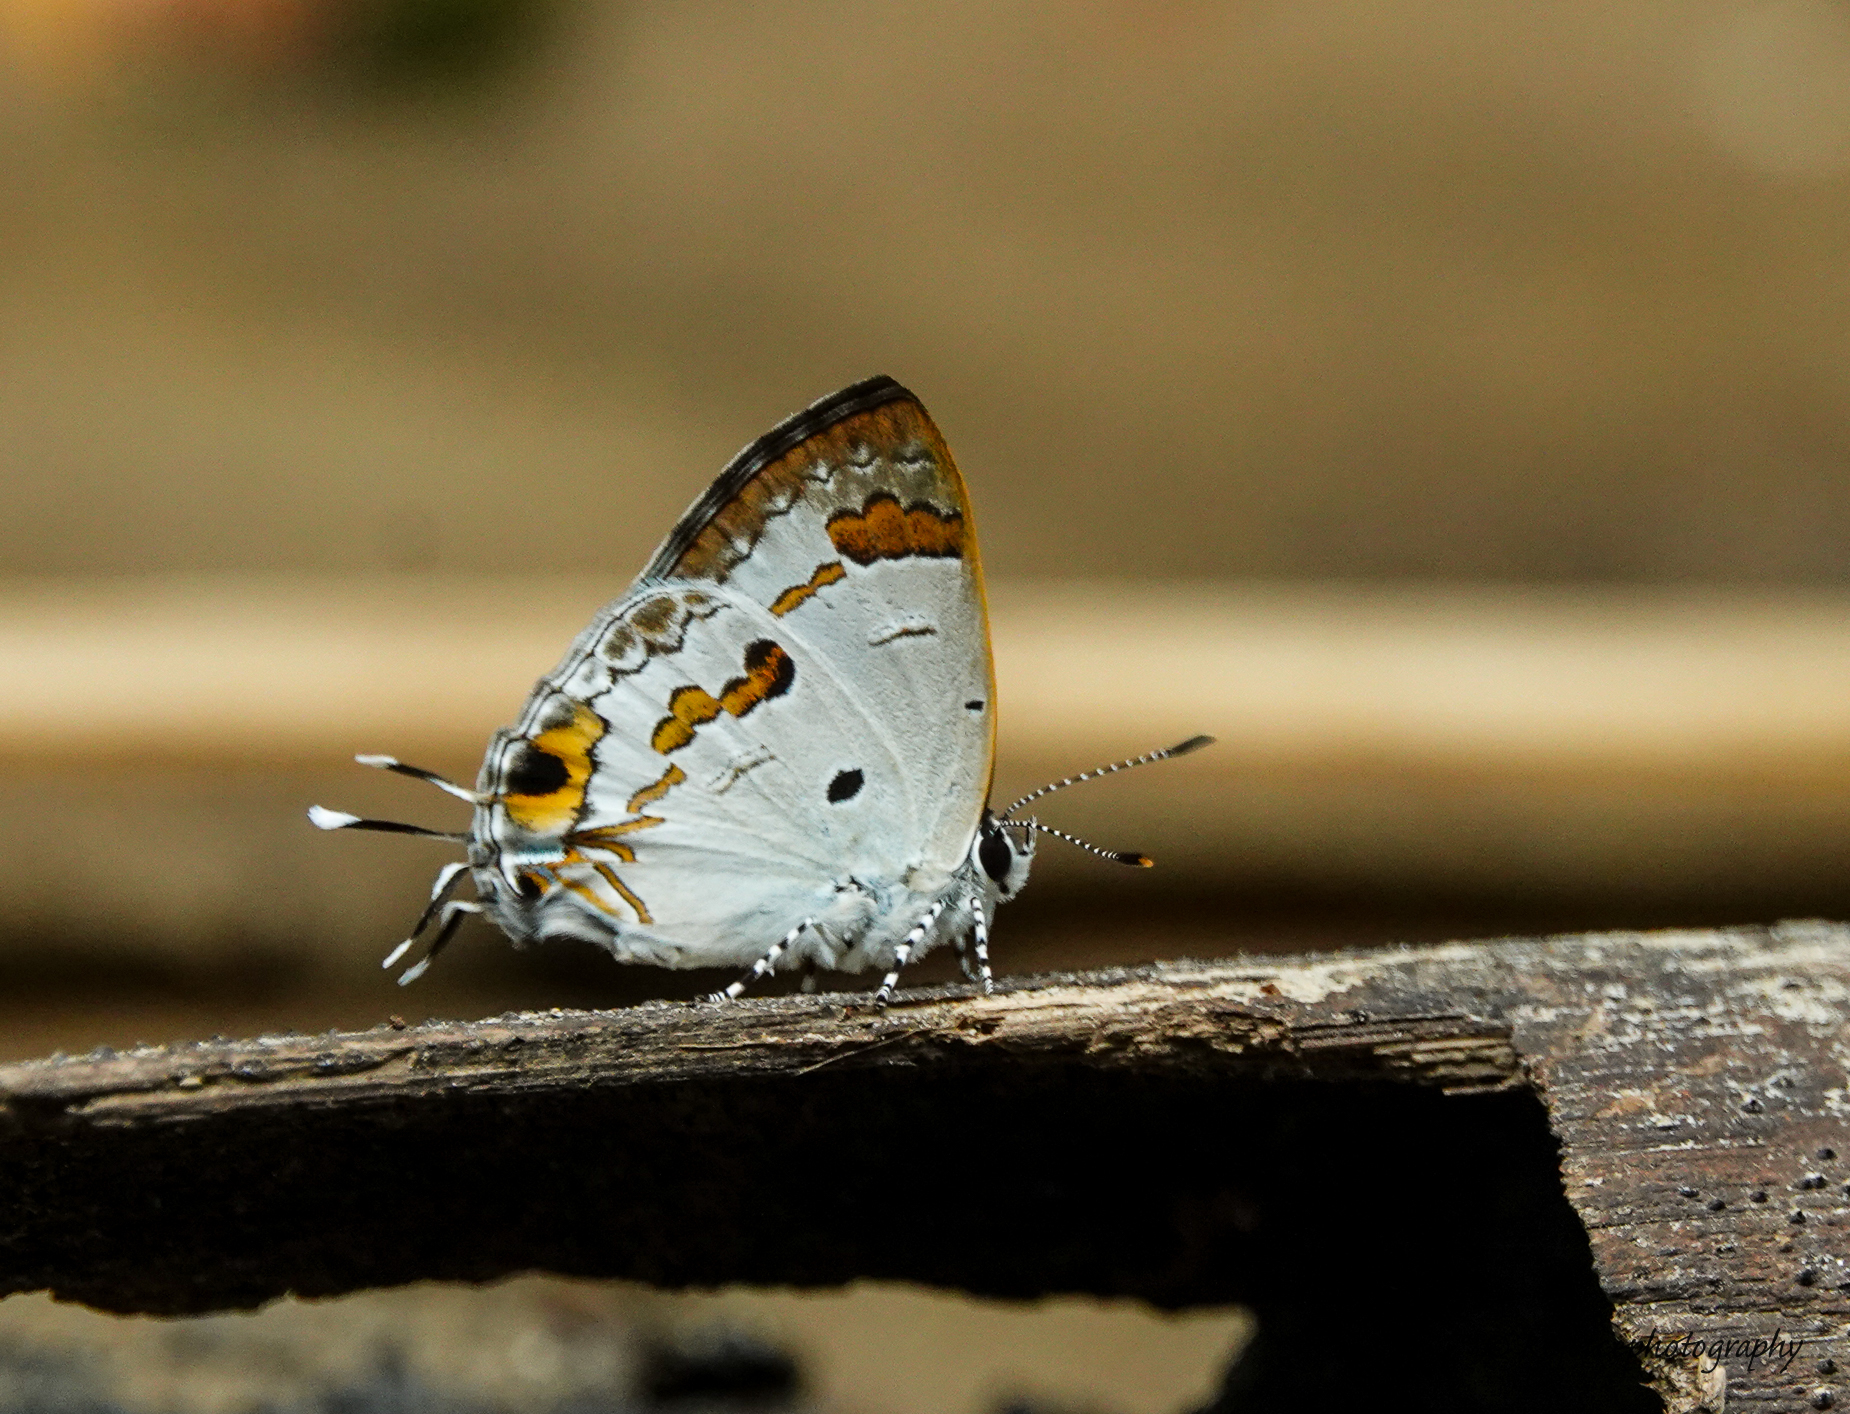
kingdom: Animalia
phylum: Arthropoda
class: Insecta
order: Lepidoptera
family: Lycaenidae
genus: Chliaria
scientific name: Chliaria othona
